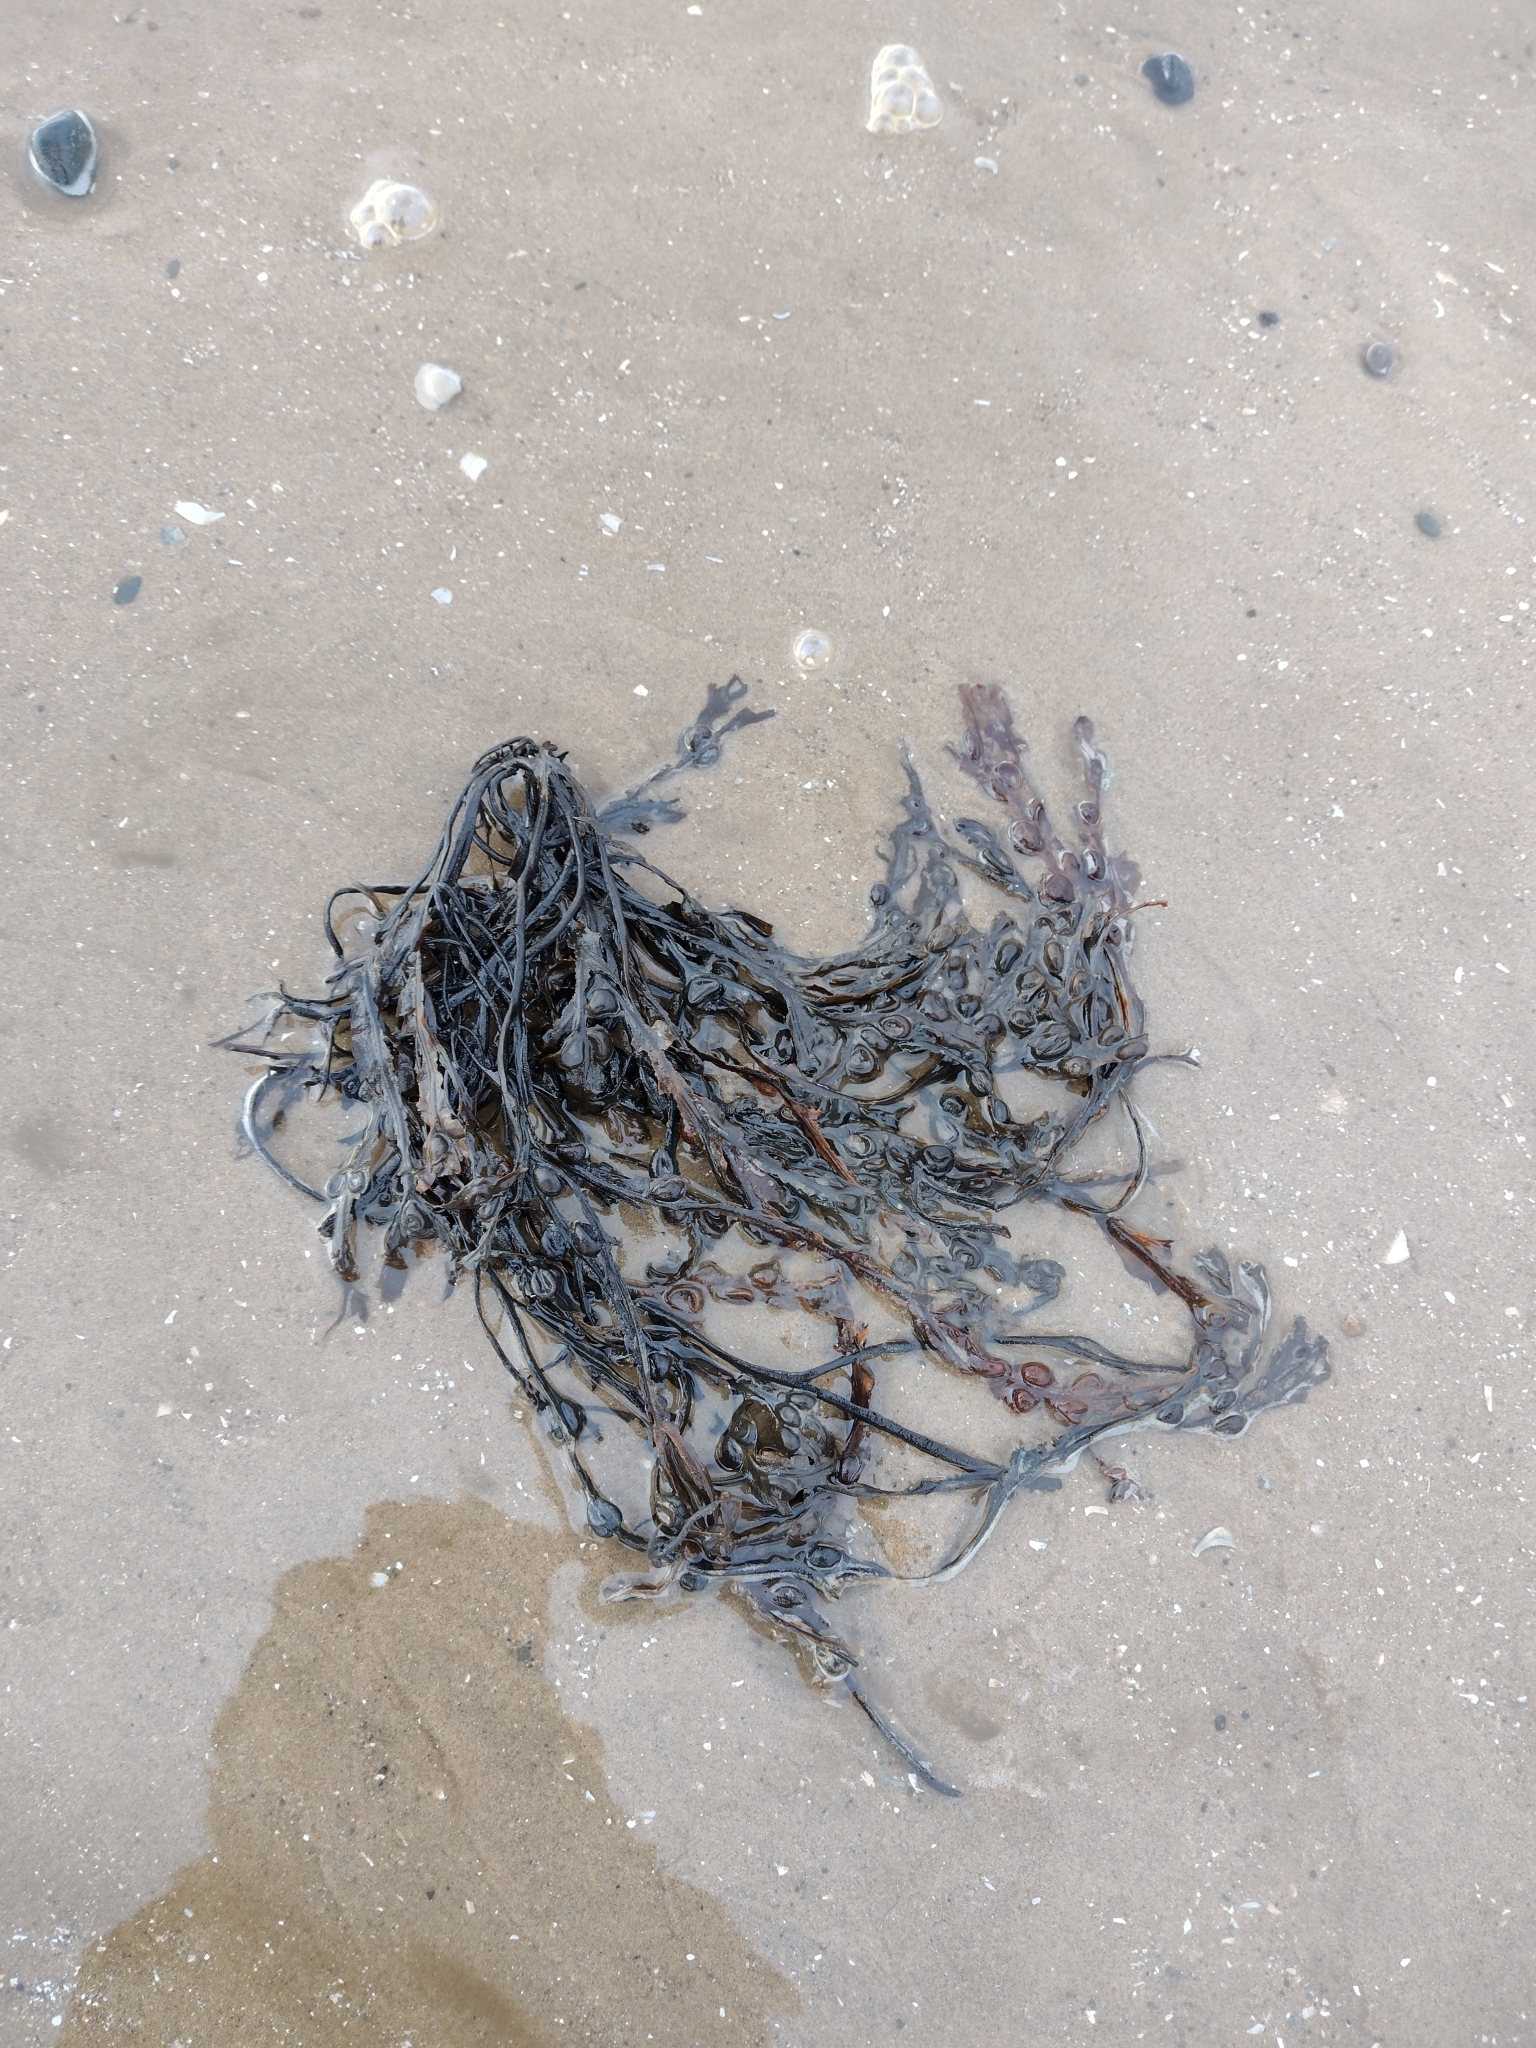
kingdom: Chromista
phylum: Ochrophyta
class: Phaeophyceae
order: Fucales
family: Fucaceae
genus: Fucus
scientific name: Fucus vesiculosus
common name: Bladder wrack
